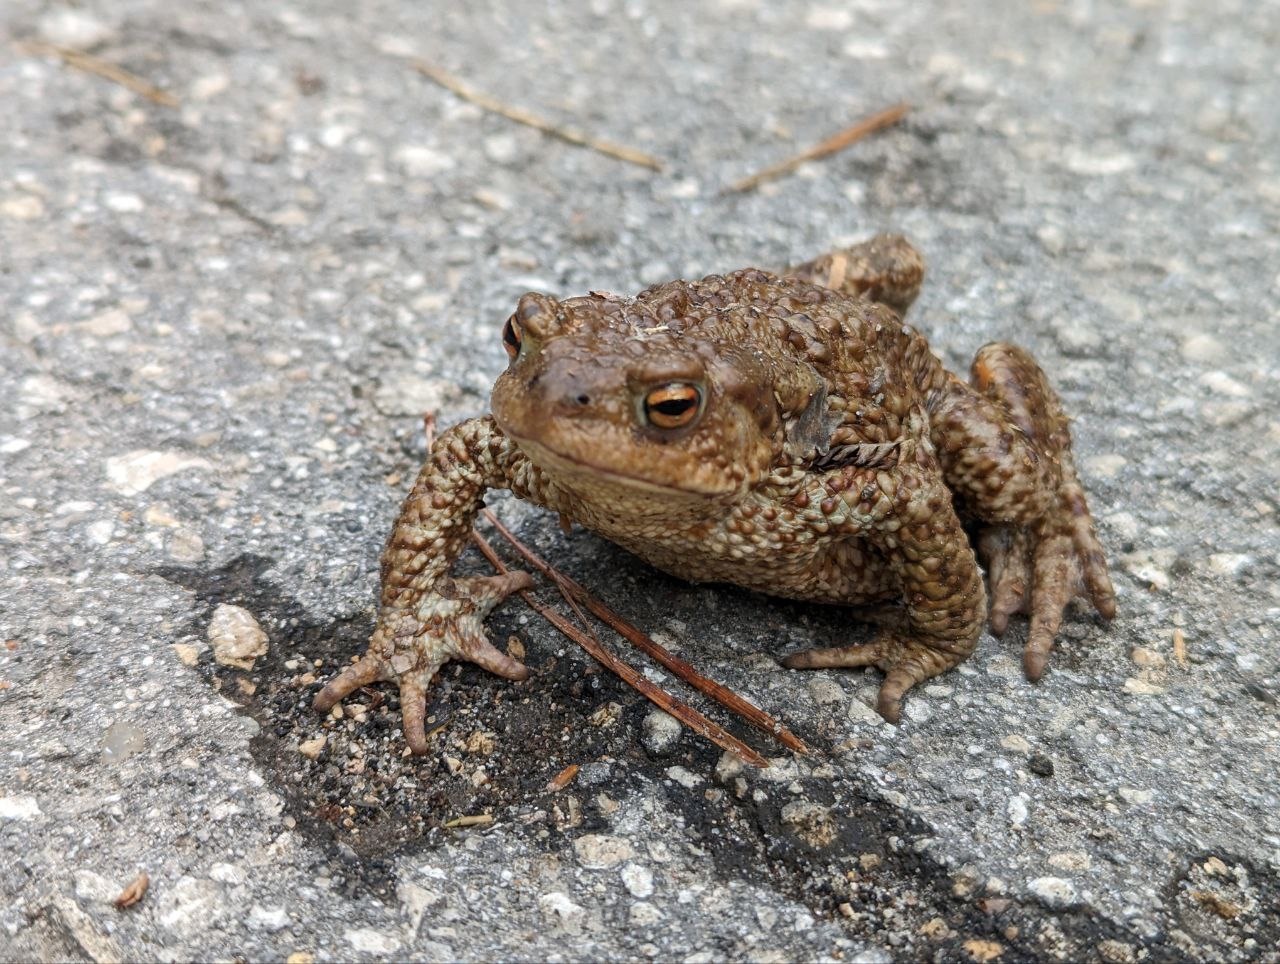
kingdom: Animalia
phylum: Chordata
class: Amphibia
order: Anura
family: Bufonidae
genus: Bufo
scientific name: Bufo bufo
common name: Common toad
